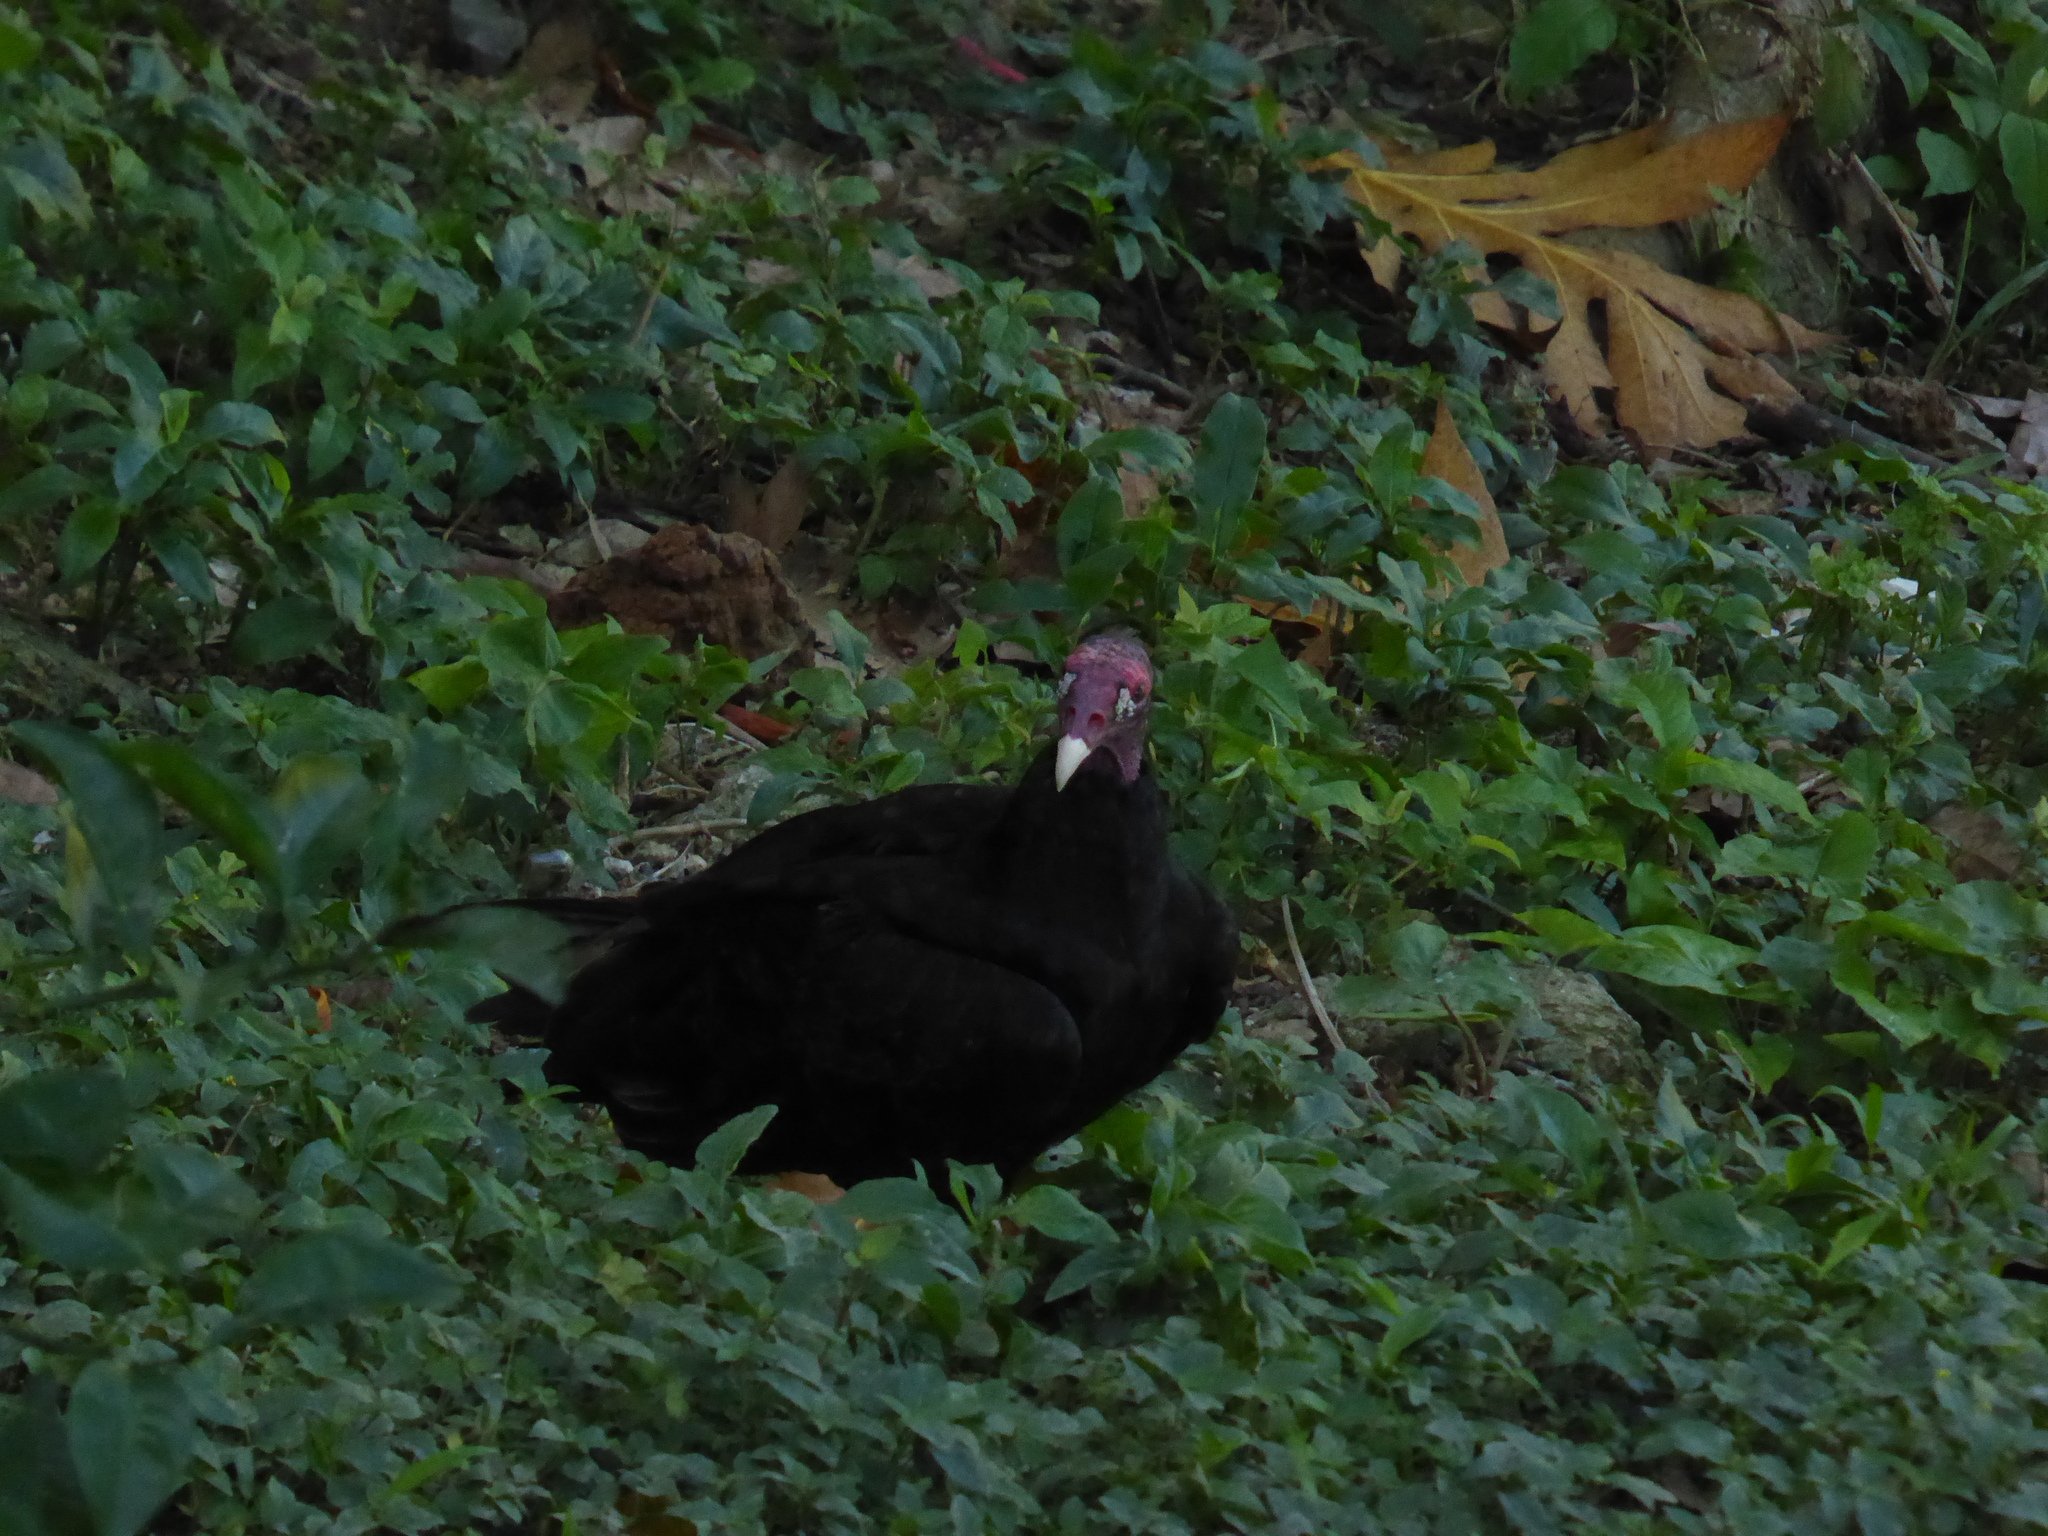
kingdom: Animalia
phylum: Chordata
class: Aves
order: Accipitriformes
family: Cathartidae
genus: Cathartes
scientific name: Cathartes aura
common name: Turkey vulture
